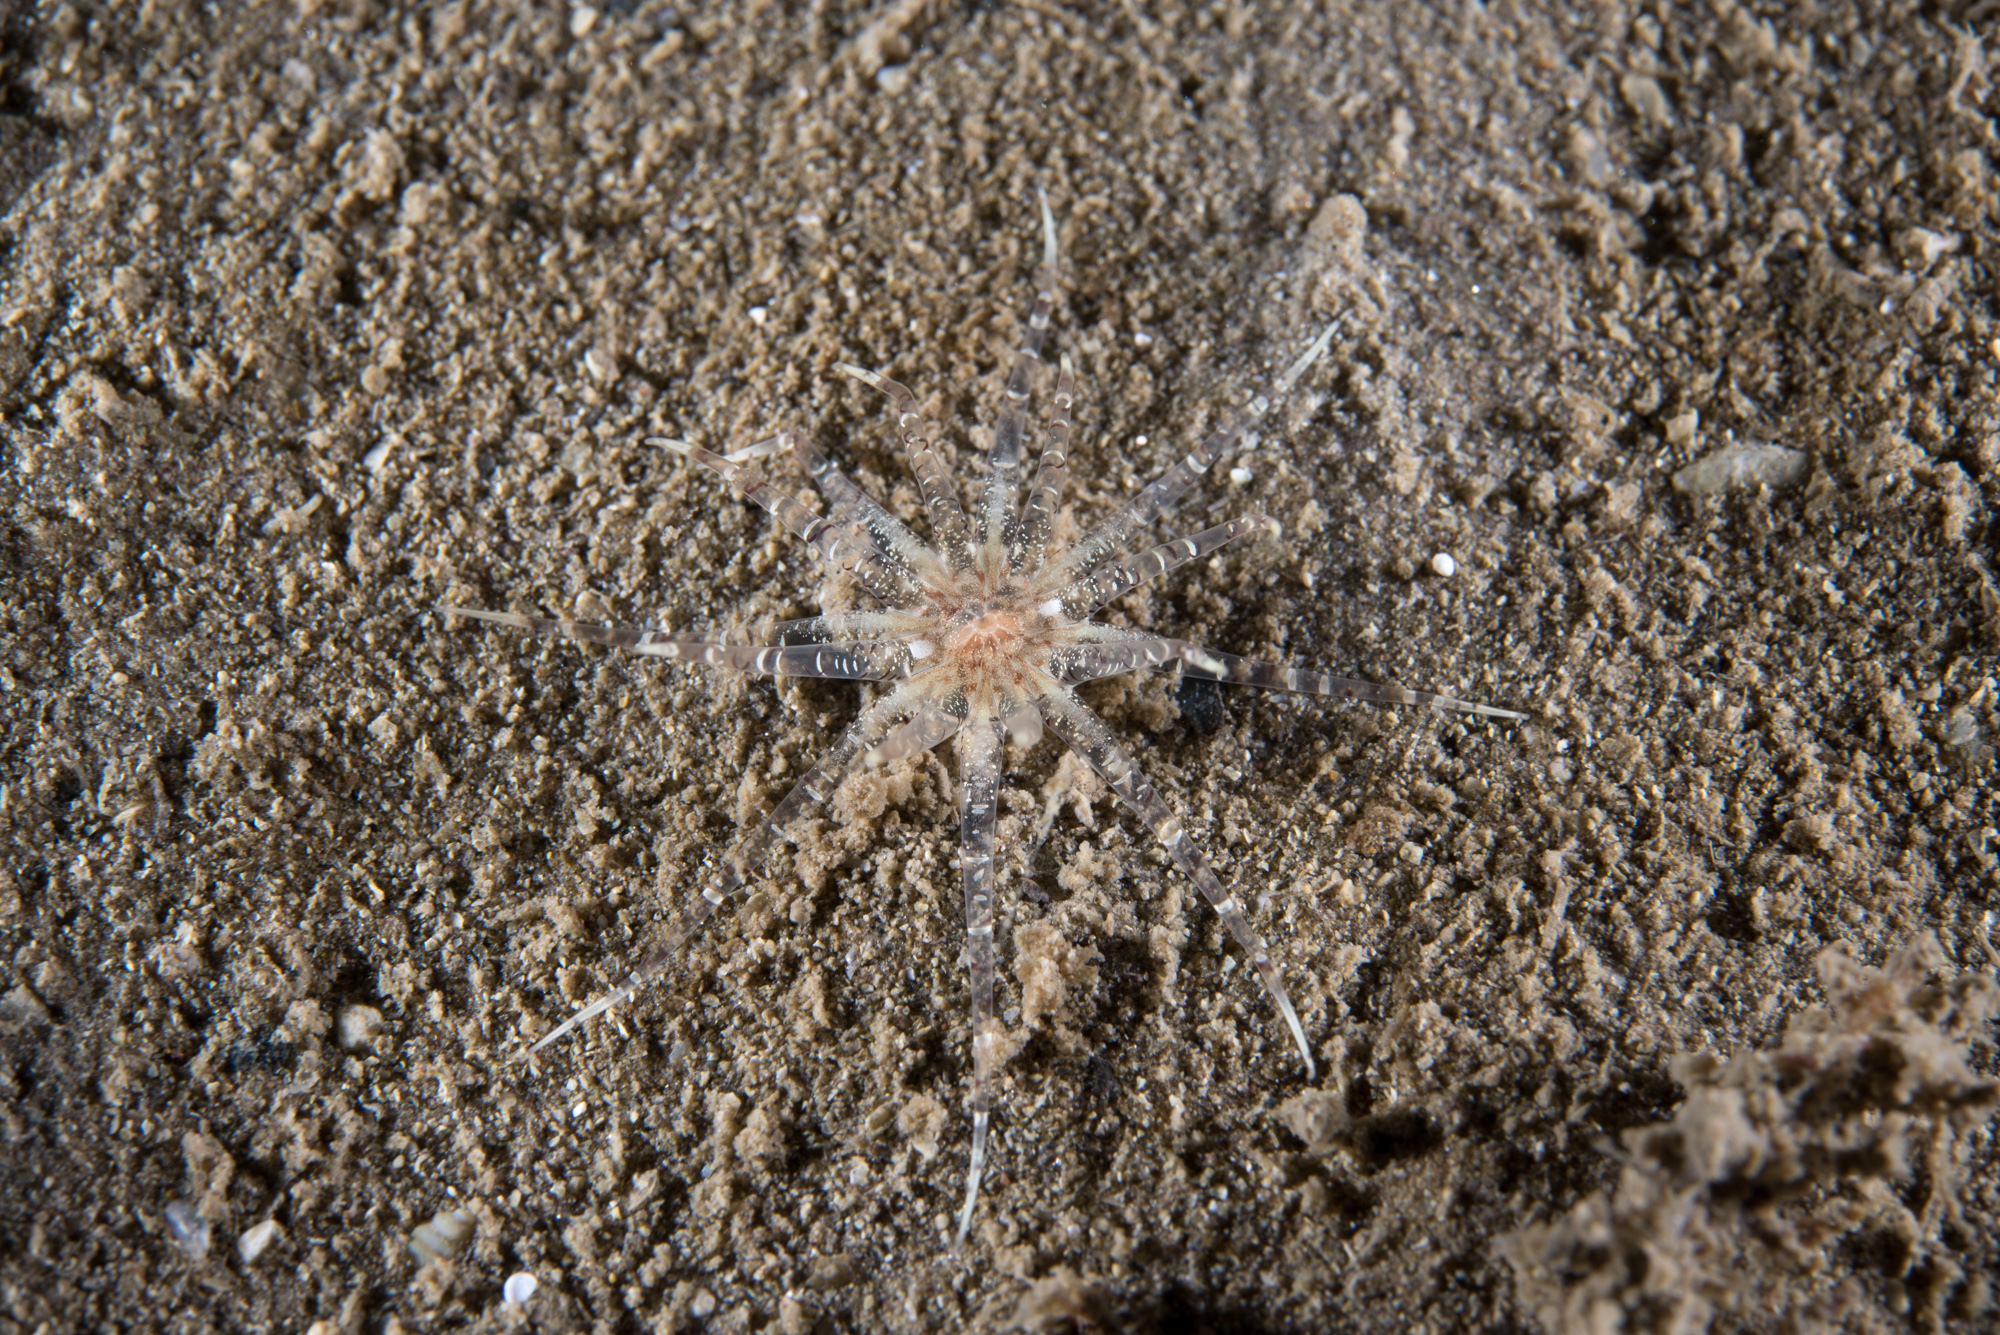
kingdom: Animalia
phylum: Cnidaria
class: Anthozoa
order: Actiniaria
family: Edwardsiidae
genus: Edwardsia
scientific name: Edwardsia claparedii
